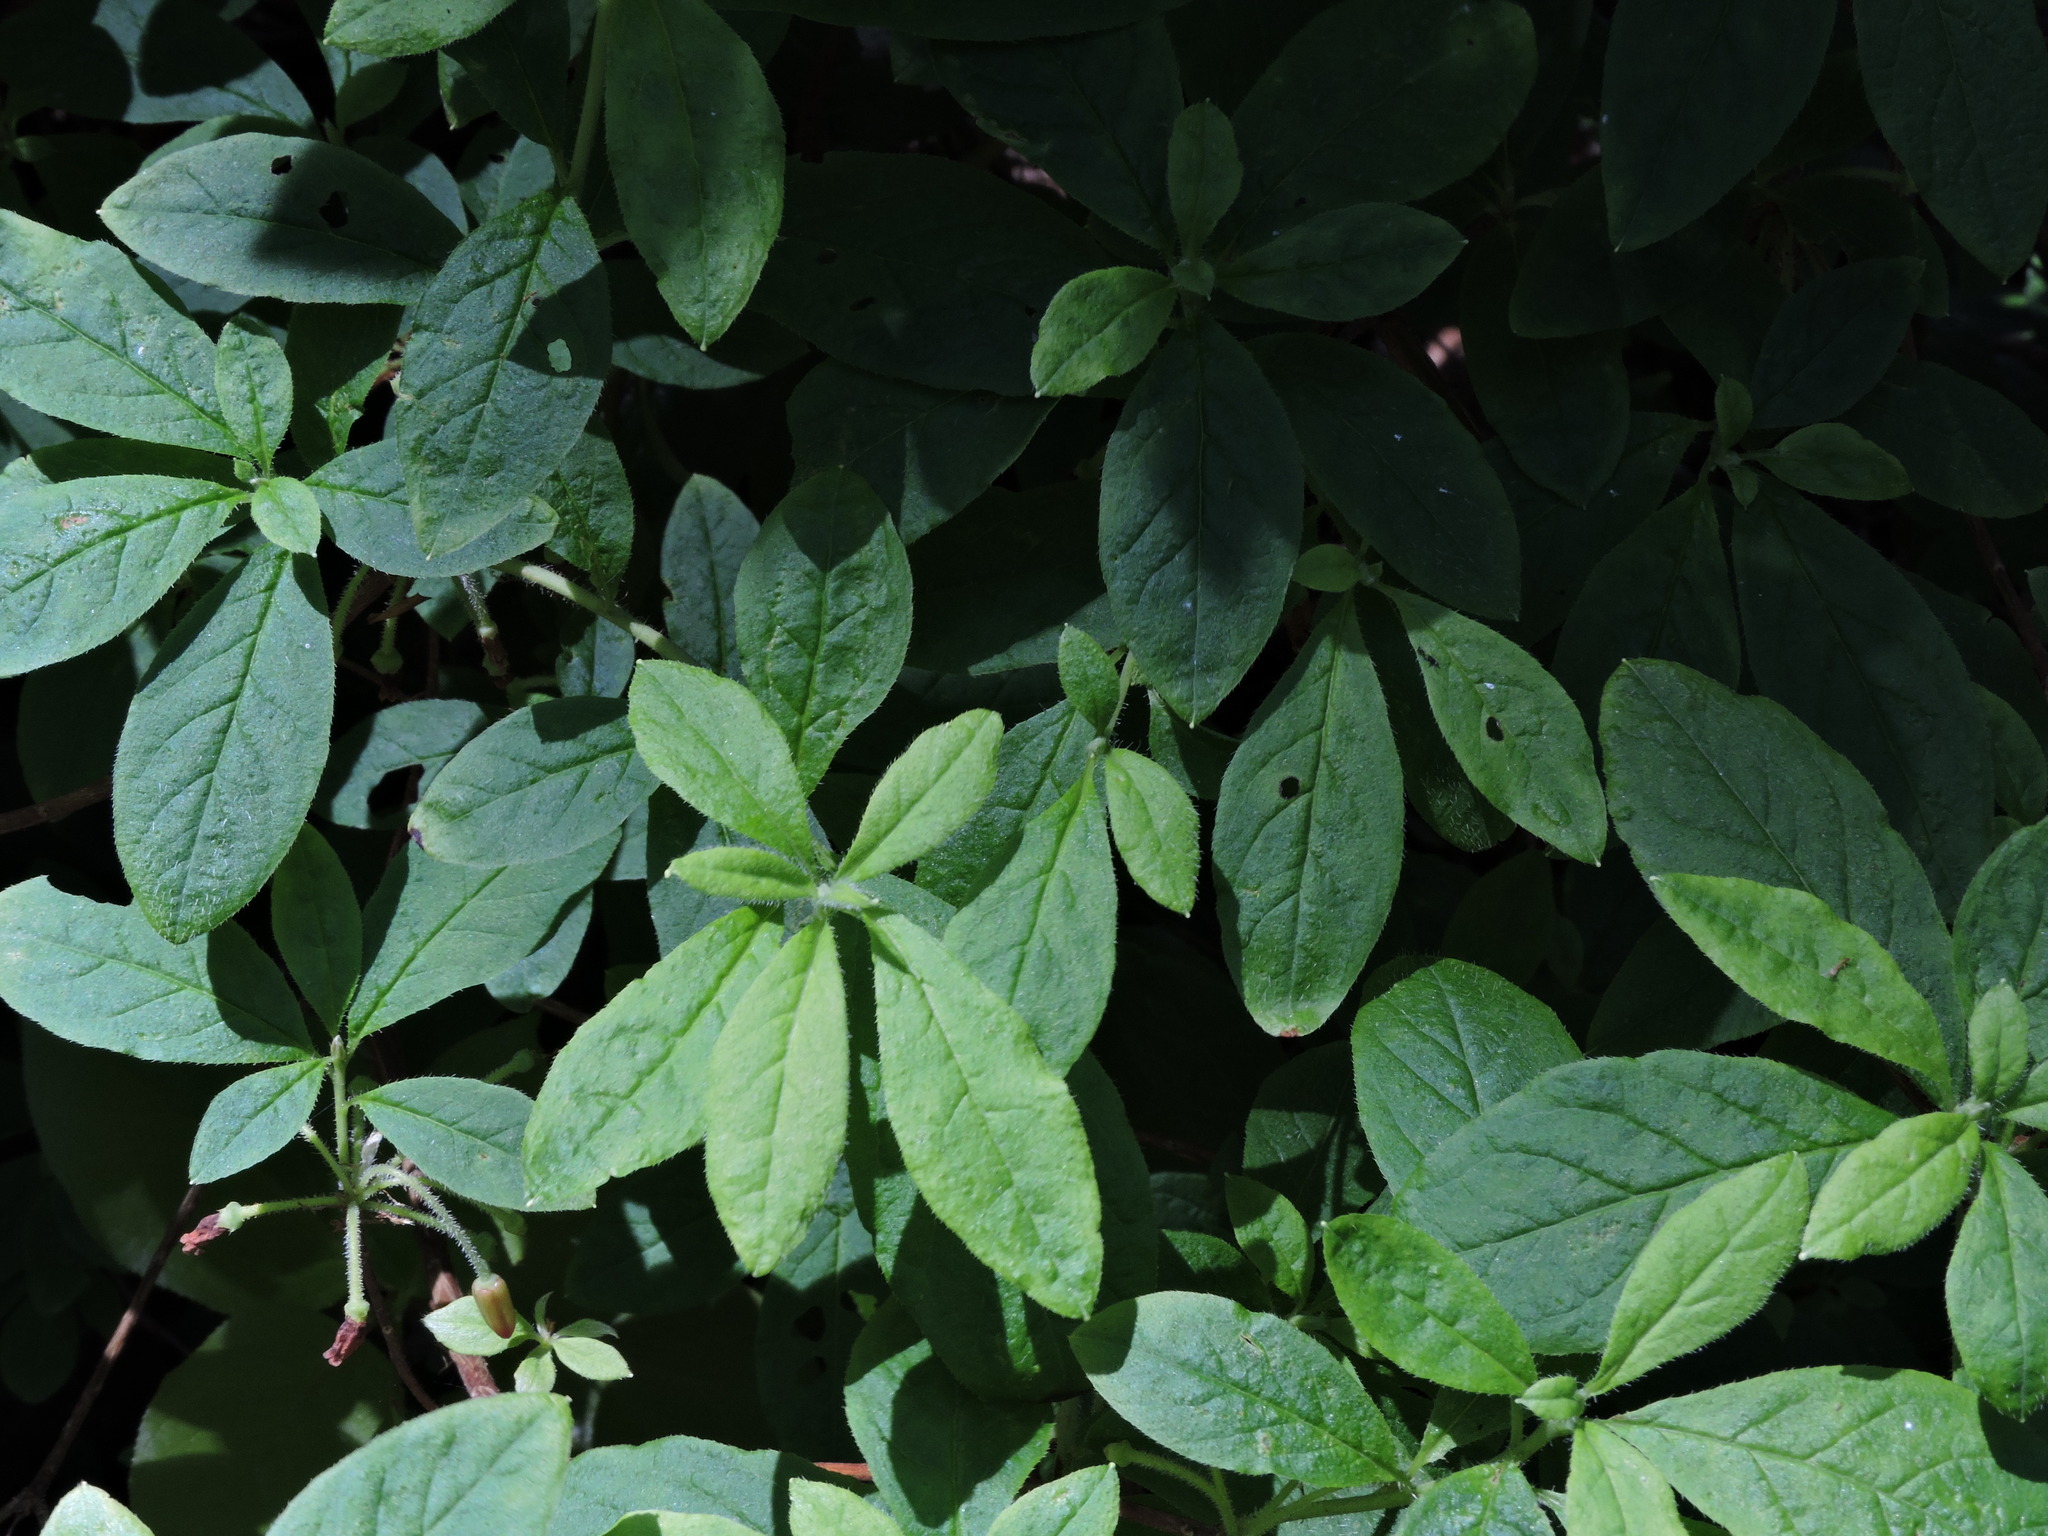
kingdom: Plantae
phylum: Tracheophyta
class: Magnoliopsida
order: Ericales
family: Ericaceae
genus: Rhododendron
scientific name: Rhododendron menziesii
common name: Pacific menziesia
